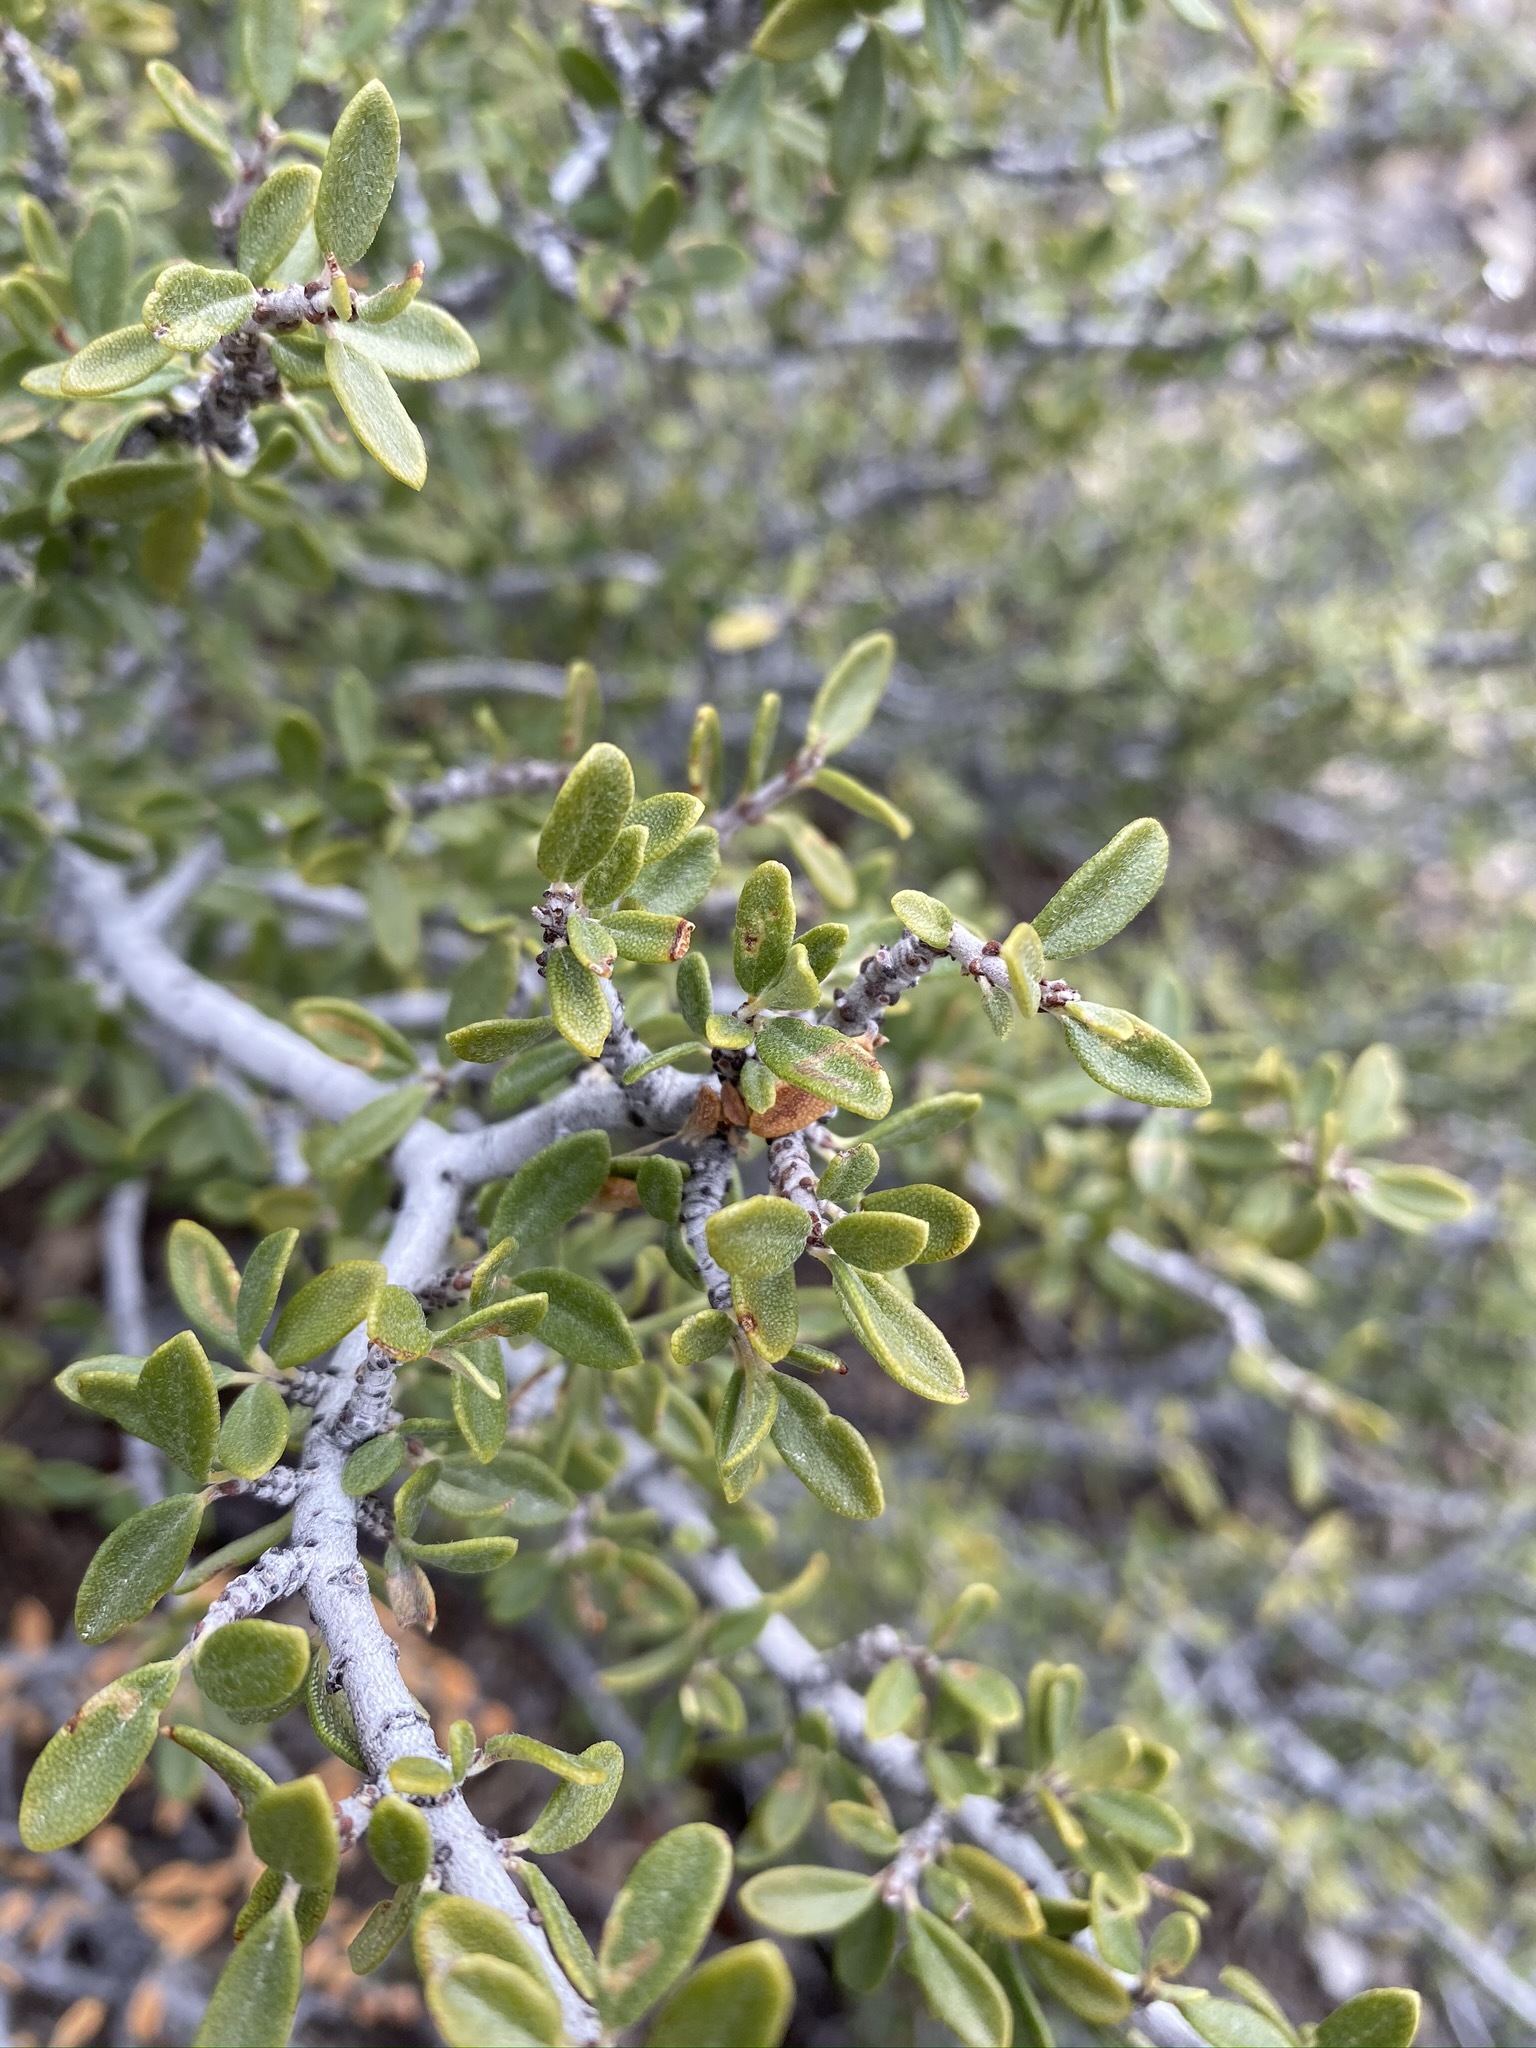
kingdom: Plantae
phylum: Tracheophyta
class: Magnoliopsida
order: Rosales
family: Rhamnaceae
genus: Ceanothus
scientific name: Ceanothus pauciflorus
